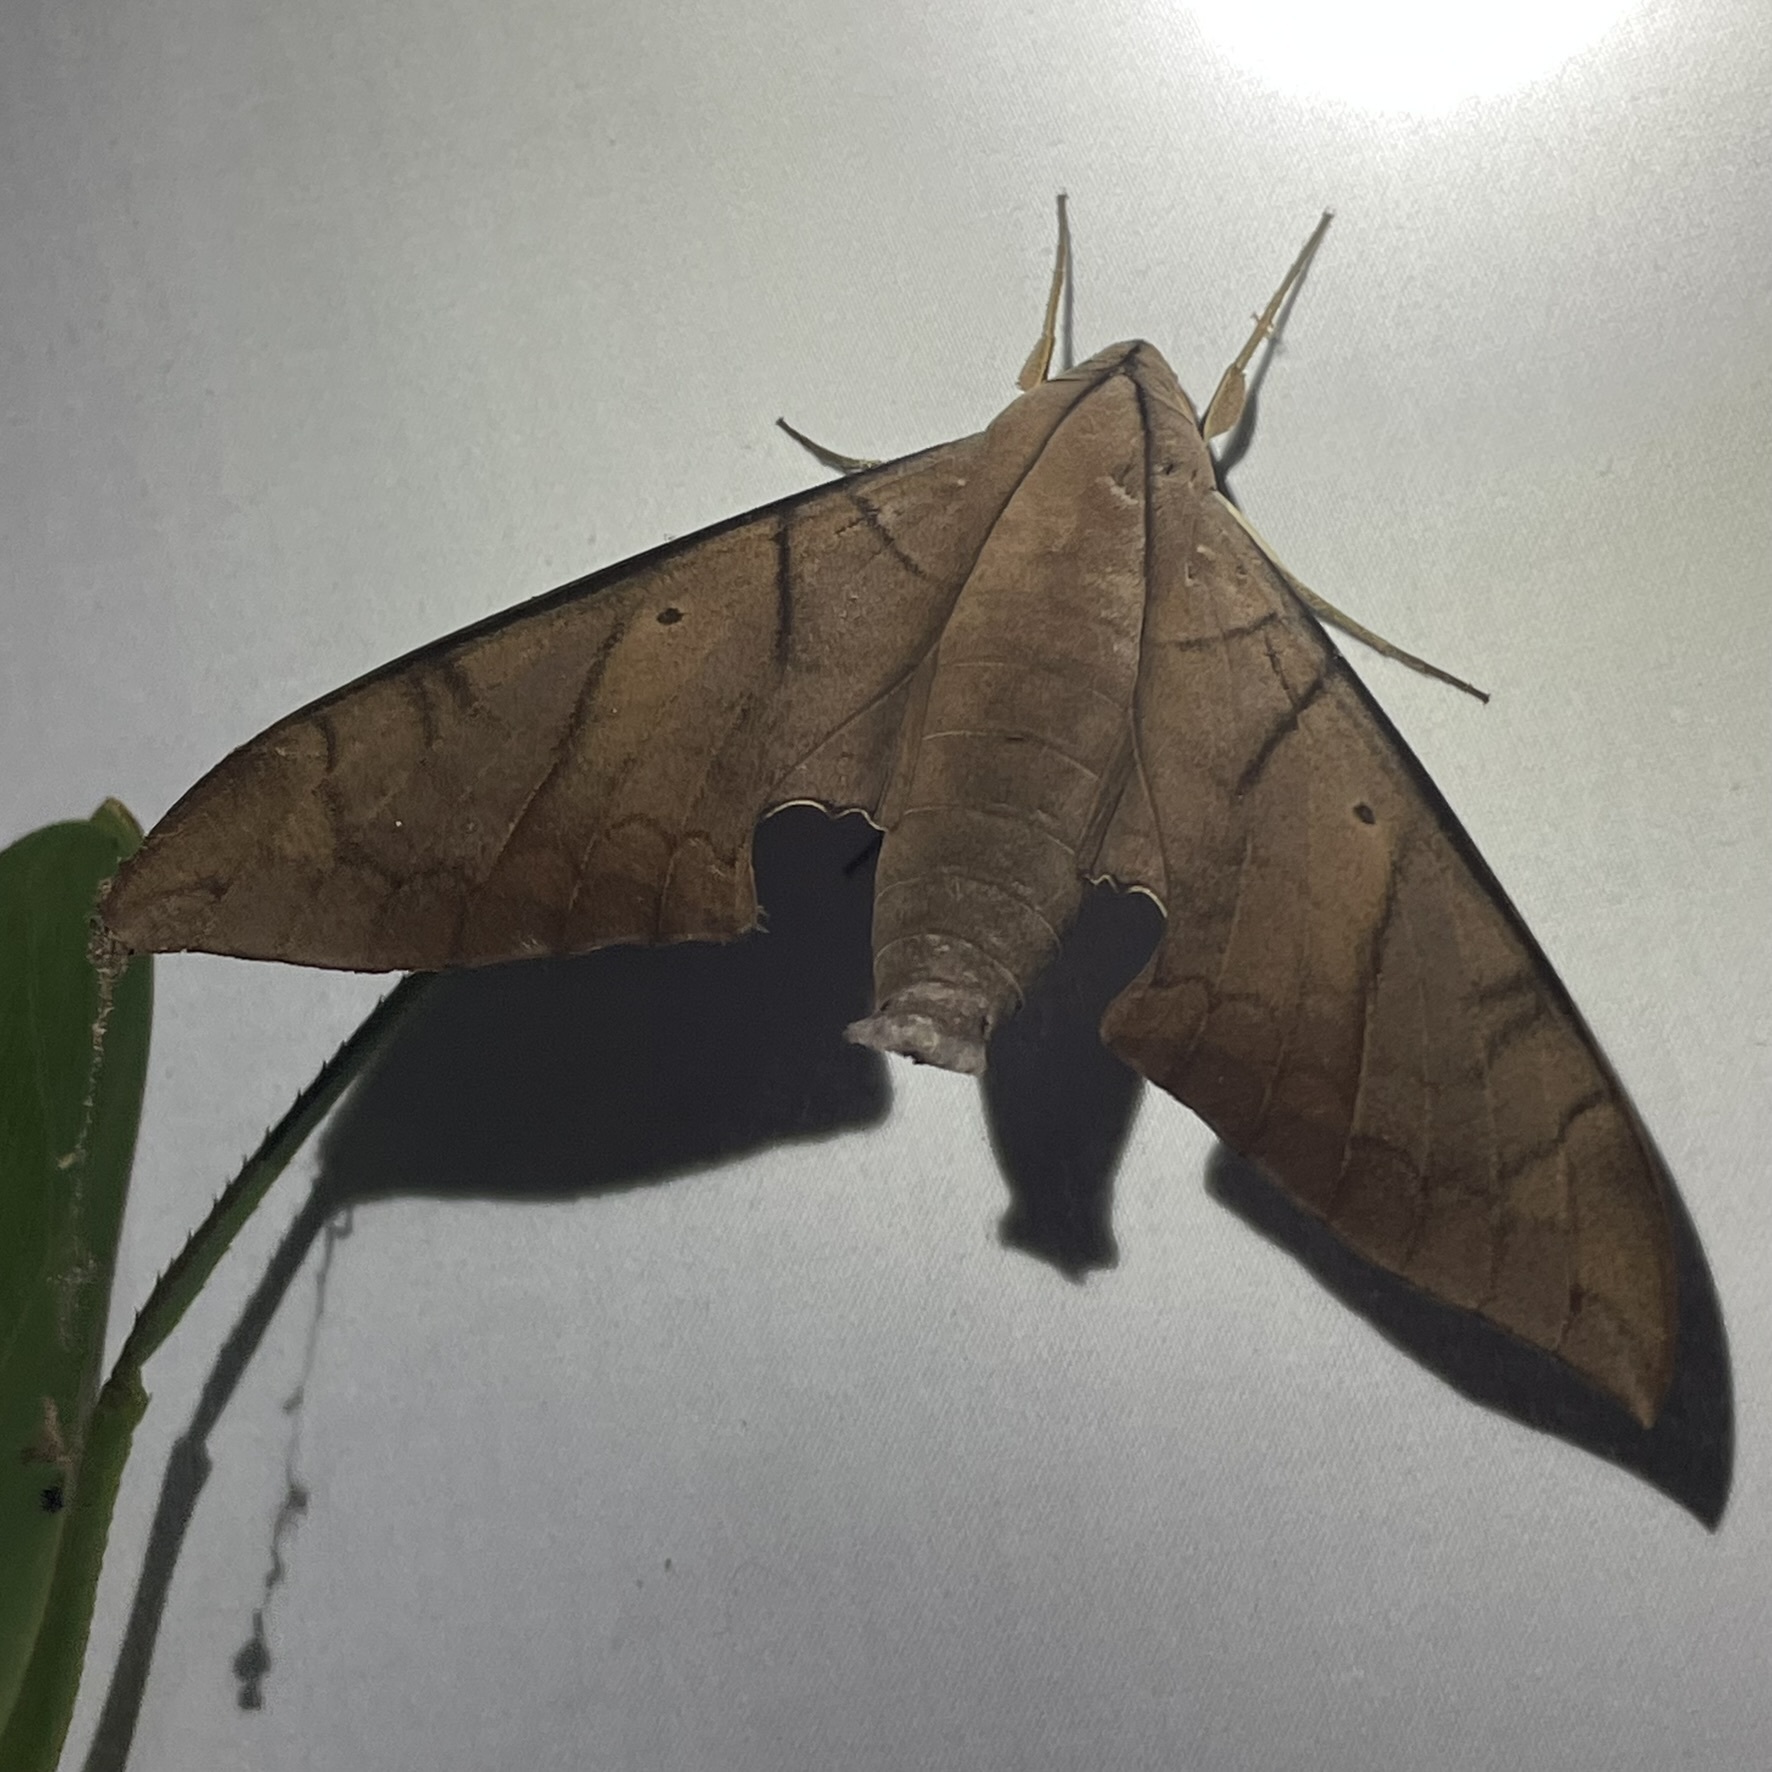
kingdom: Animalia
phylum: Arthropoda
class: Insecta
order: Lepidoptera
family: Sphingidae
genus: Pachylia
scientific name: Pachylia darceta
